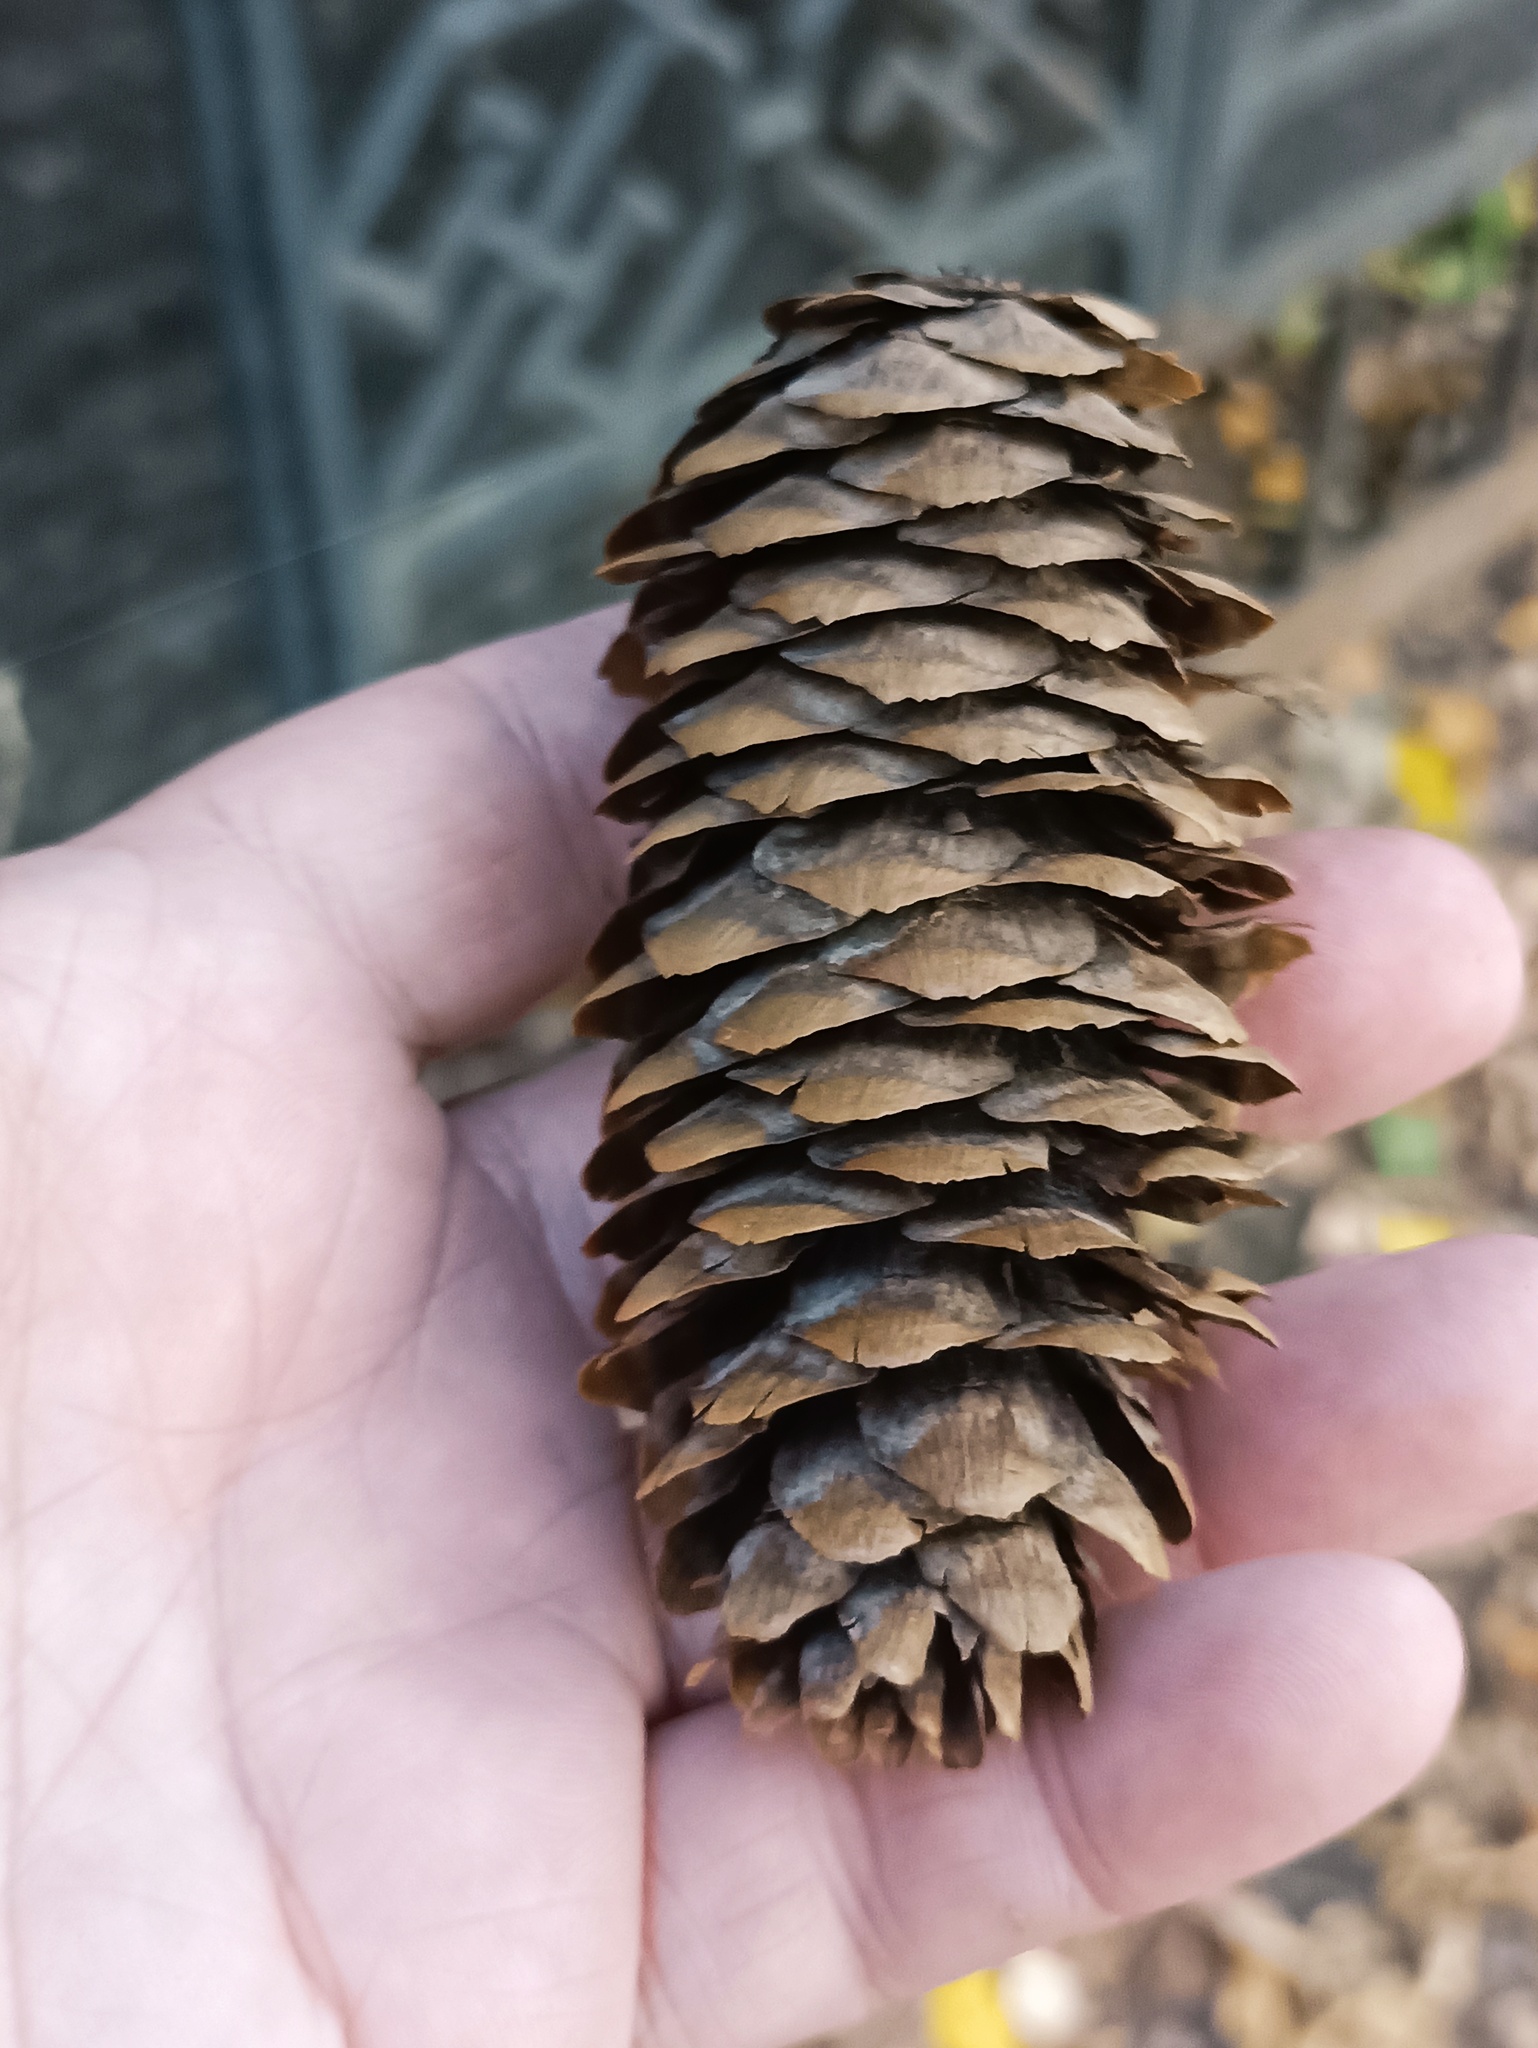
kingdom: Plantae
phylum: Tracheophyta
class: Pinopsida
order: Pinales
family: Pinaceae
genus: Picea
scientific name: Picea abies
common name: Norway spruce
